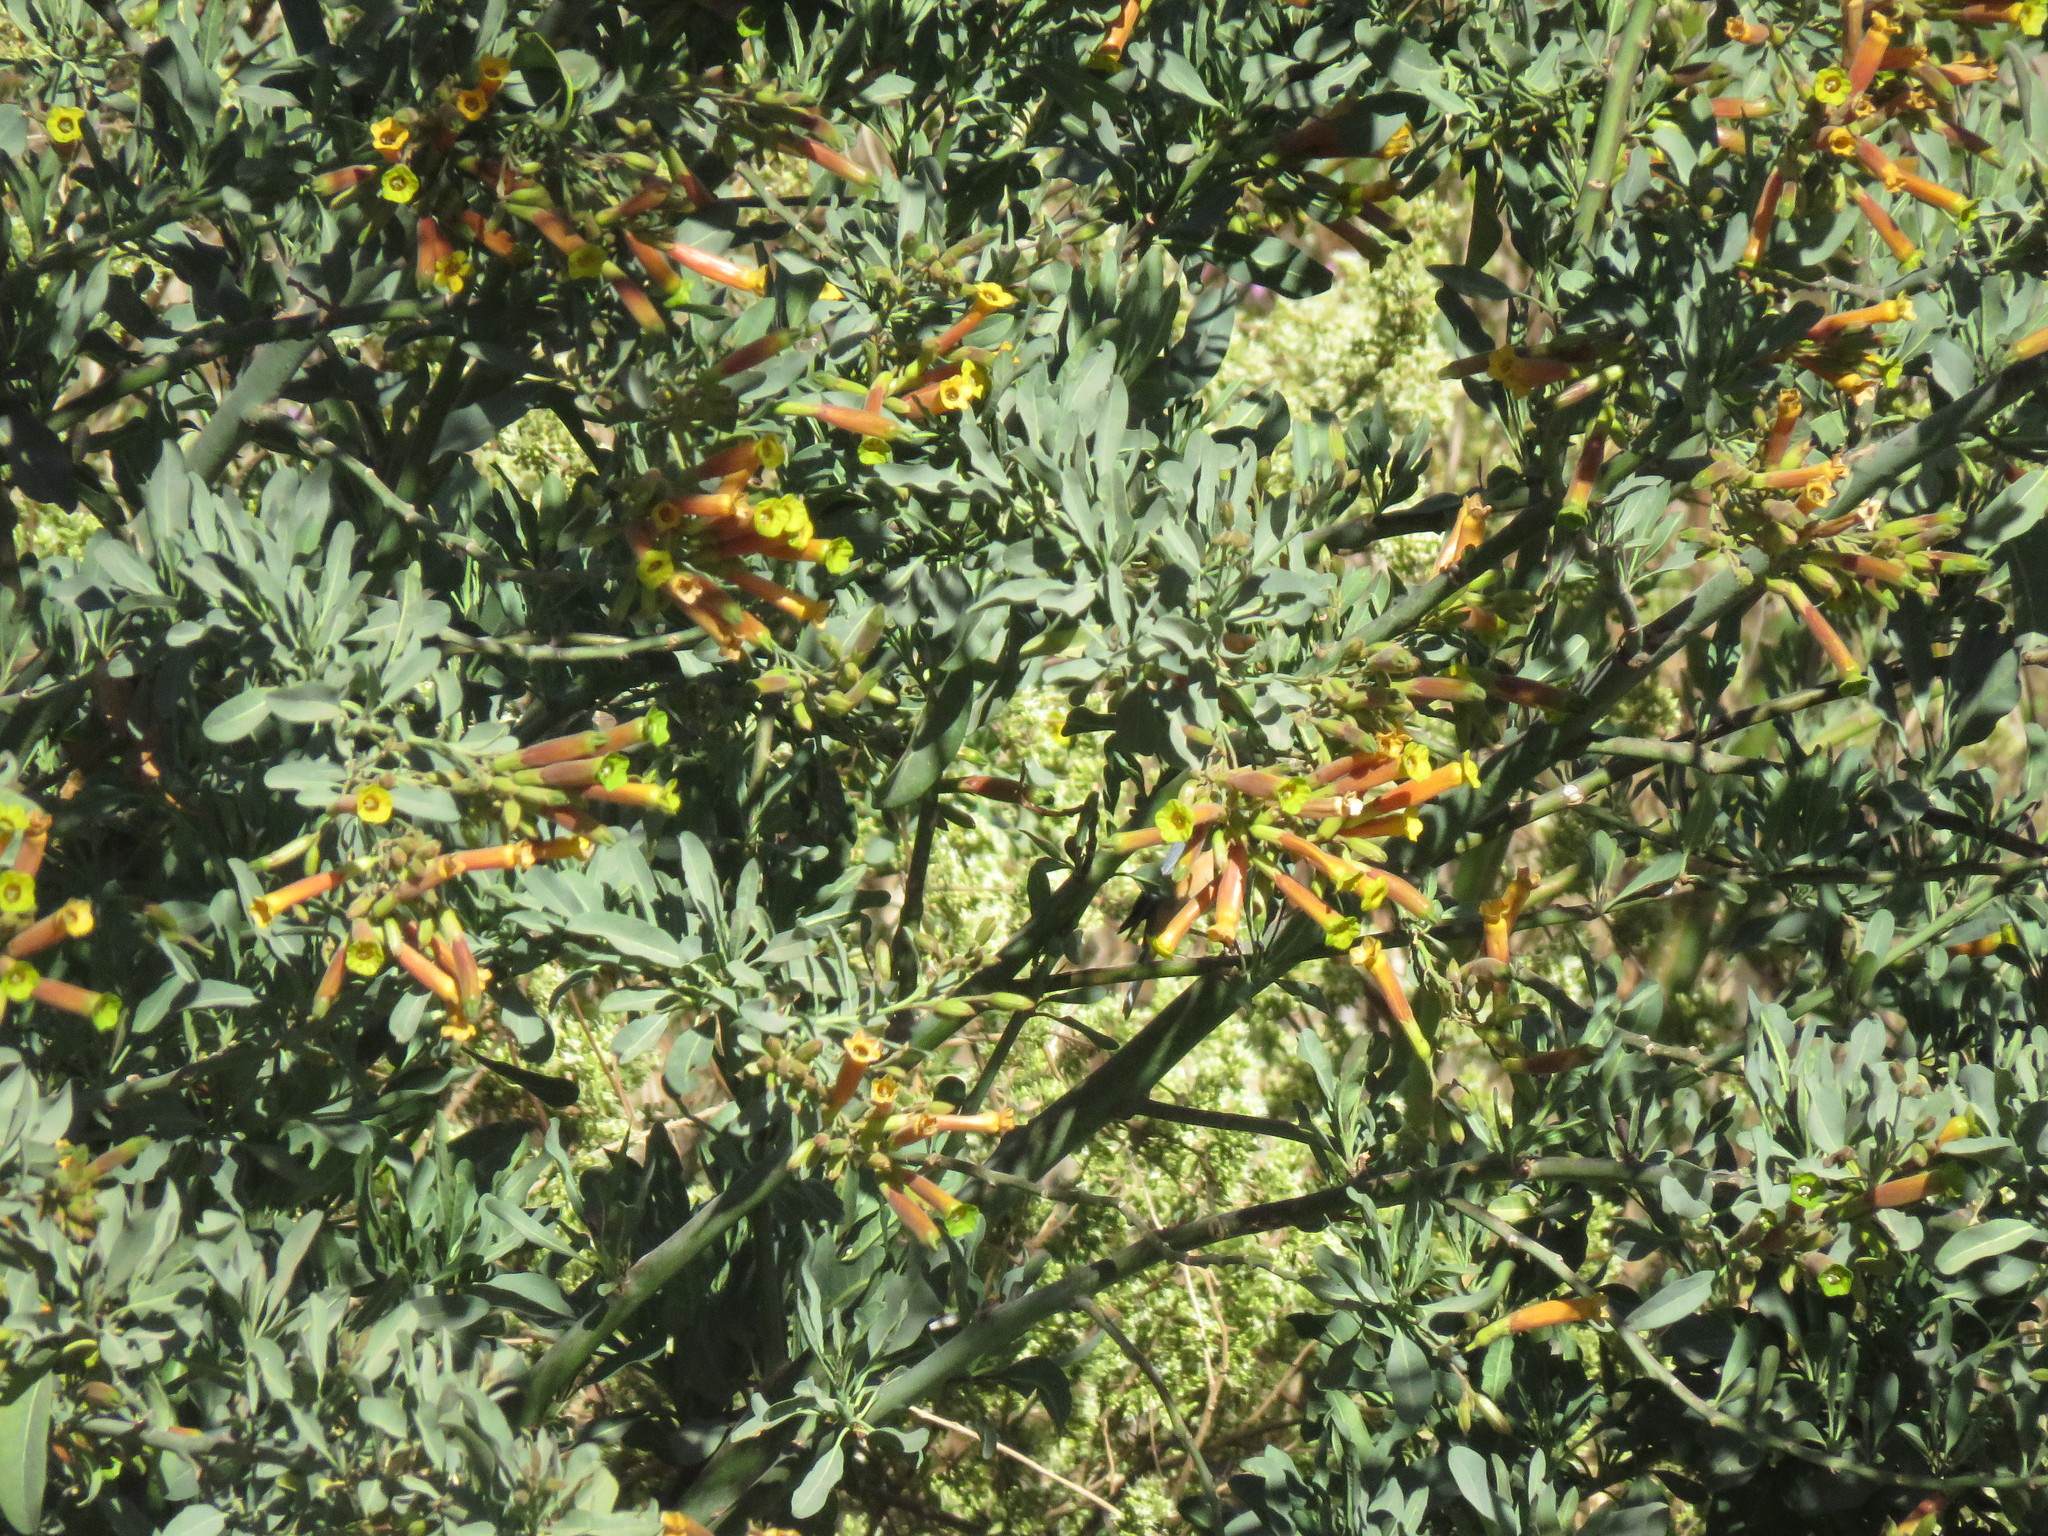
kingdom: Plantae
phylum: Tracheophyta
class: Magnoliopsida
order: Solanales
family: Solanaceae
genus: Nicotiana
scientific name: Nicotiana glauca
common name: Tree tobacco
